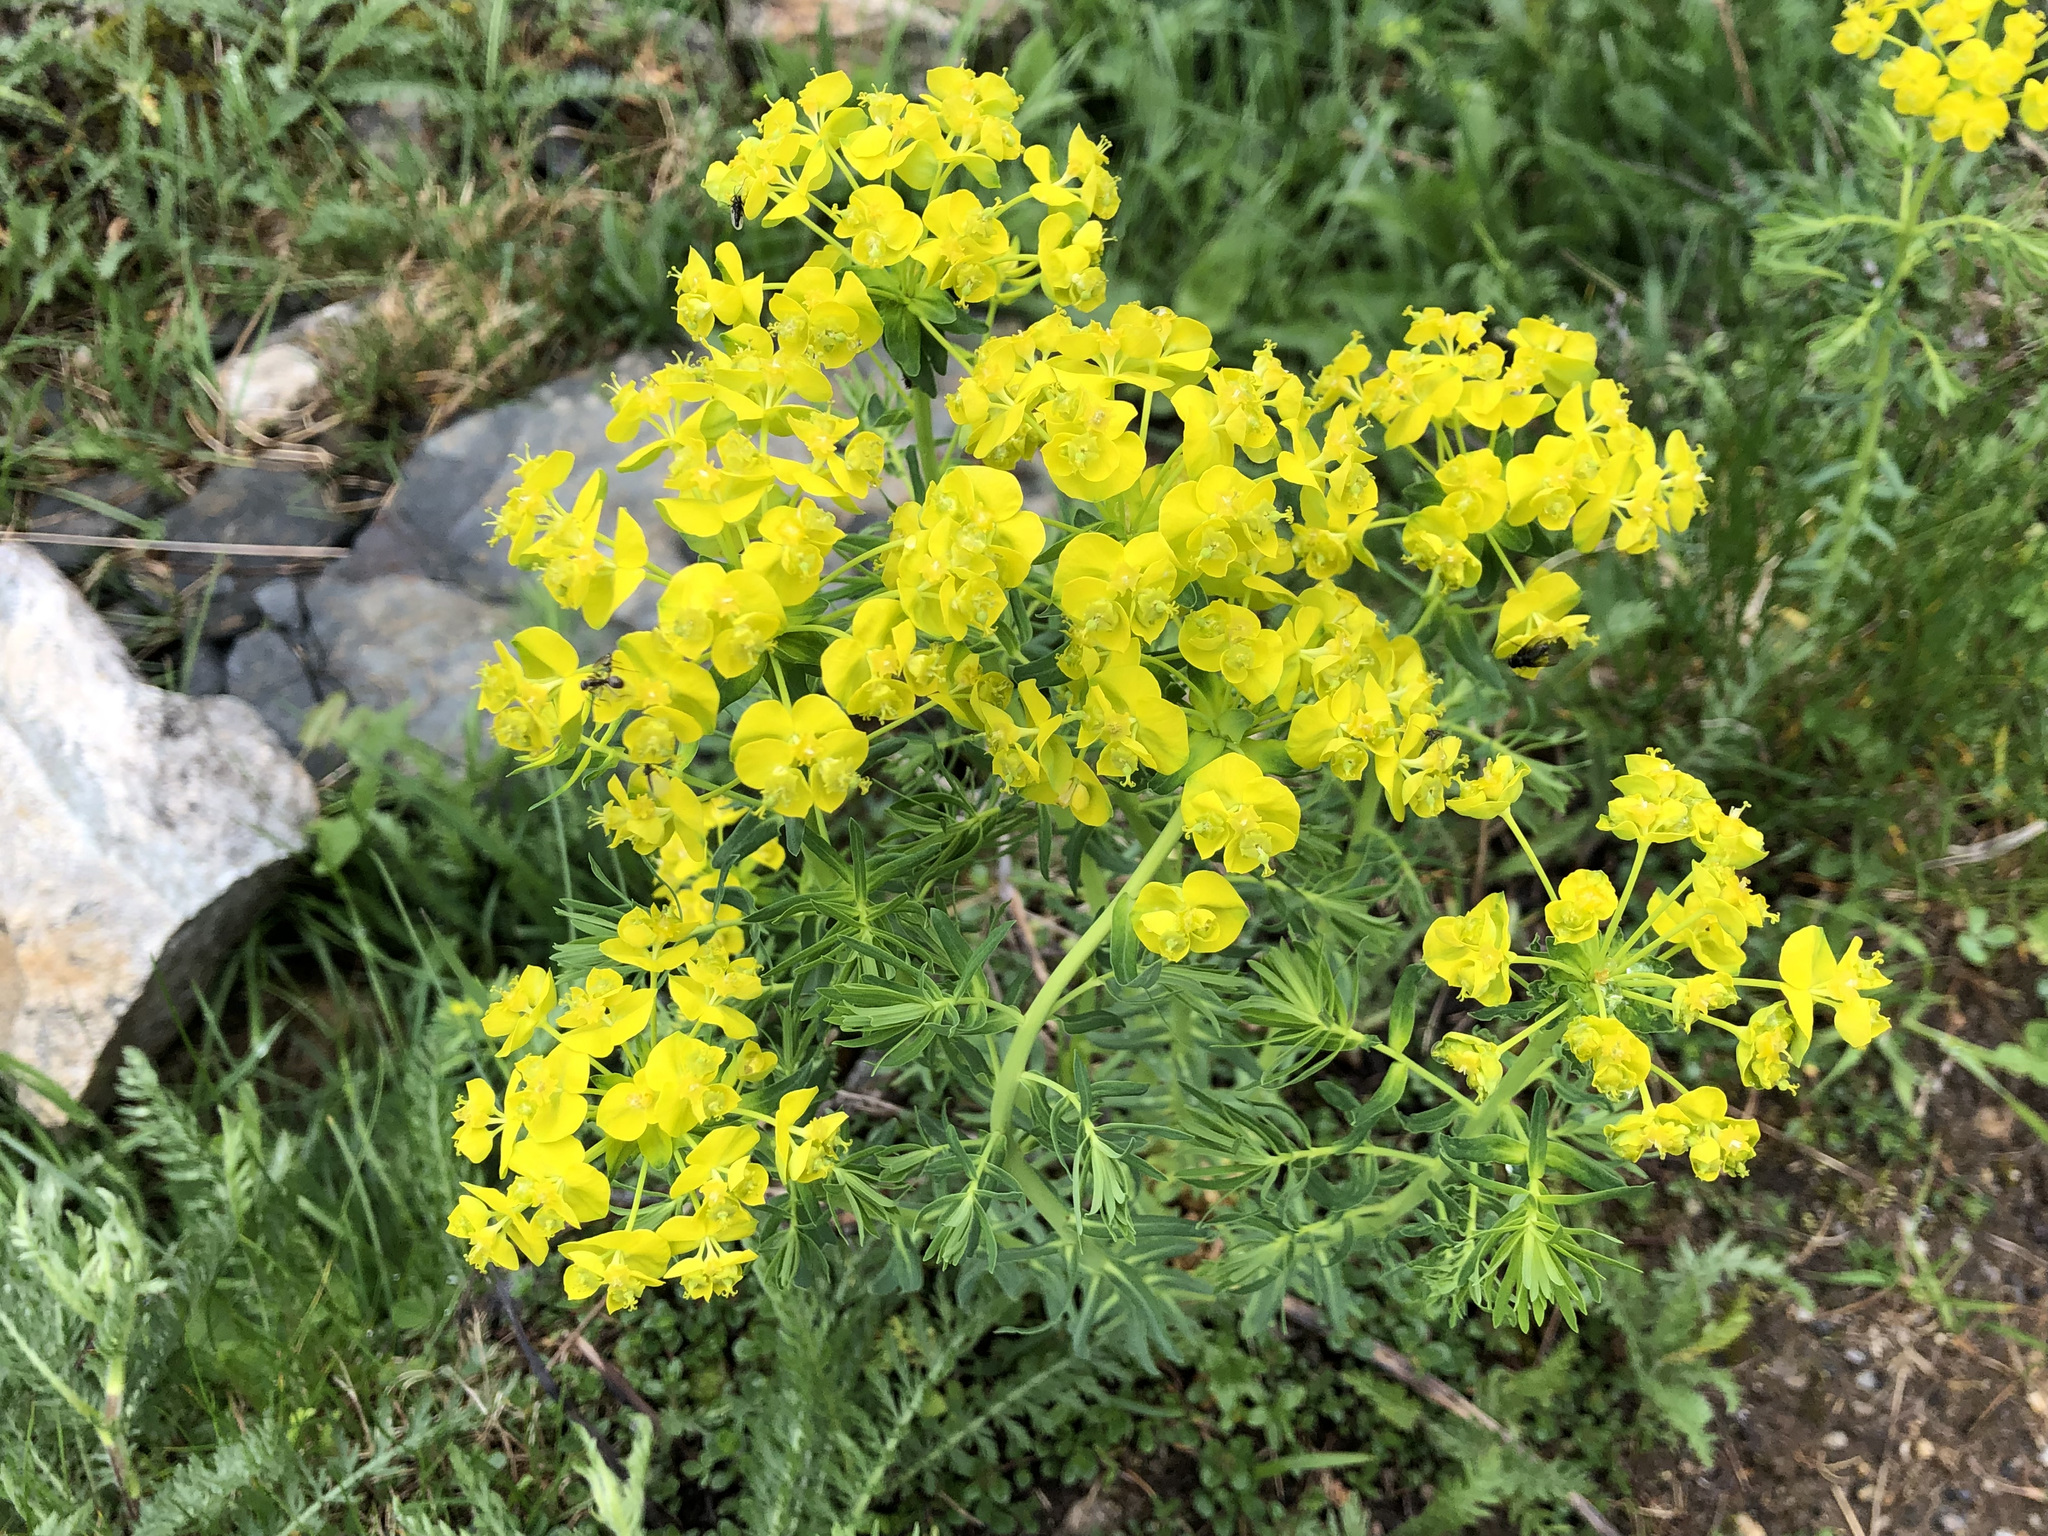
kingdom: Plantae
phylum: Tracheophyta
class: Magnoliopsida
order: Malpighiales
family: Euphorbiaceae
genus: Euphorbia
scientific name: Euphorbia cyparissias
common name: Cypress spurge
